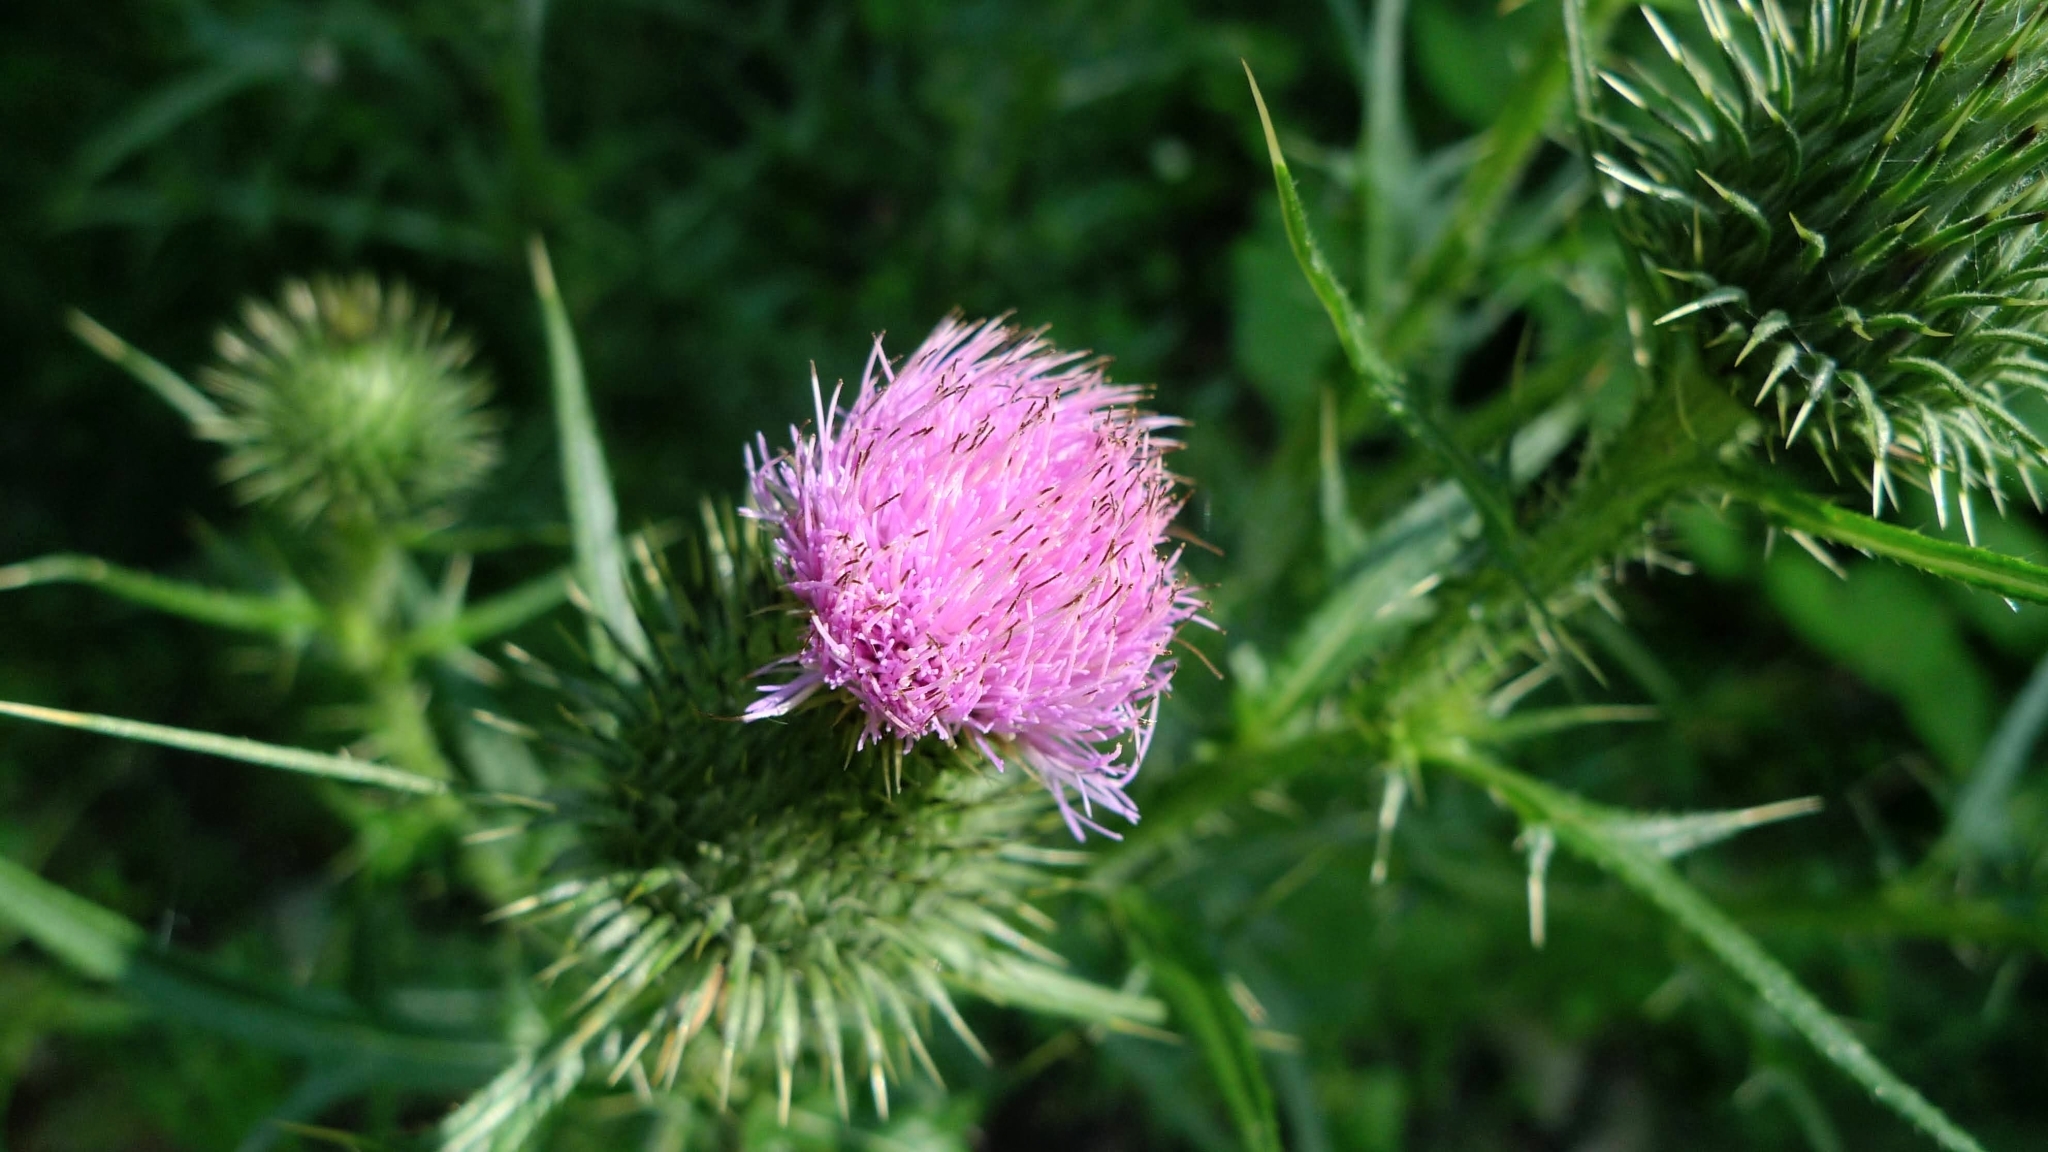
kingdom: Plantae
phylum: Tracheophyta
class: Magnoliopsida
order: Asterales
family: Asteraceae
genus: Cirsium
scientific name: Cirsium vulgare
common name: Bull thistle
